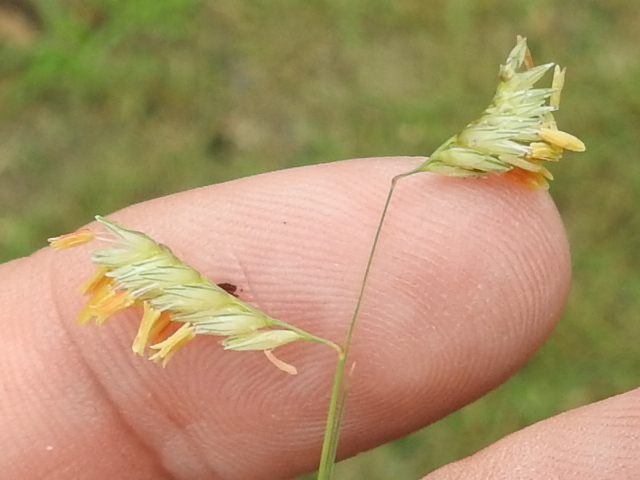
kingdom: Plantae
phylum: Tracheophyta
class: Liliopsida
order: Poales
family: Poaceae
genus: Bouteloua
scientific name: Bouteloua dactyloides
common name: Buffalo grass
